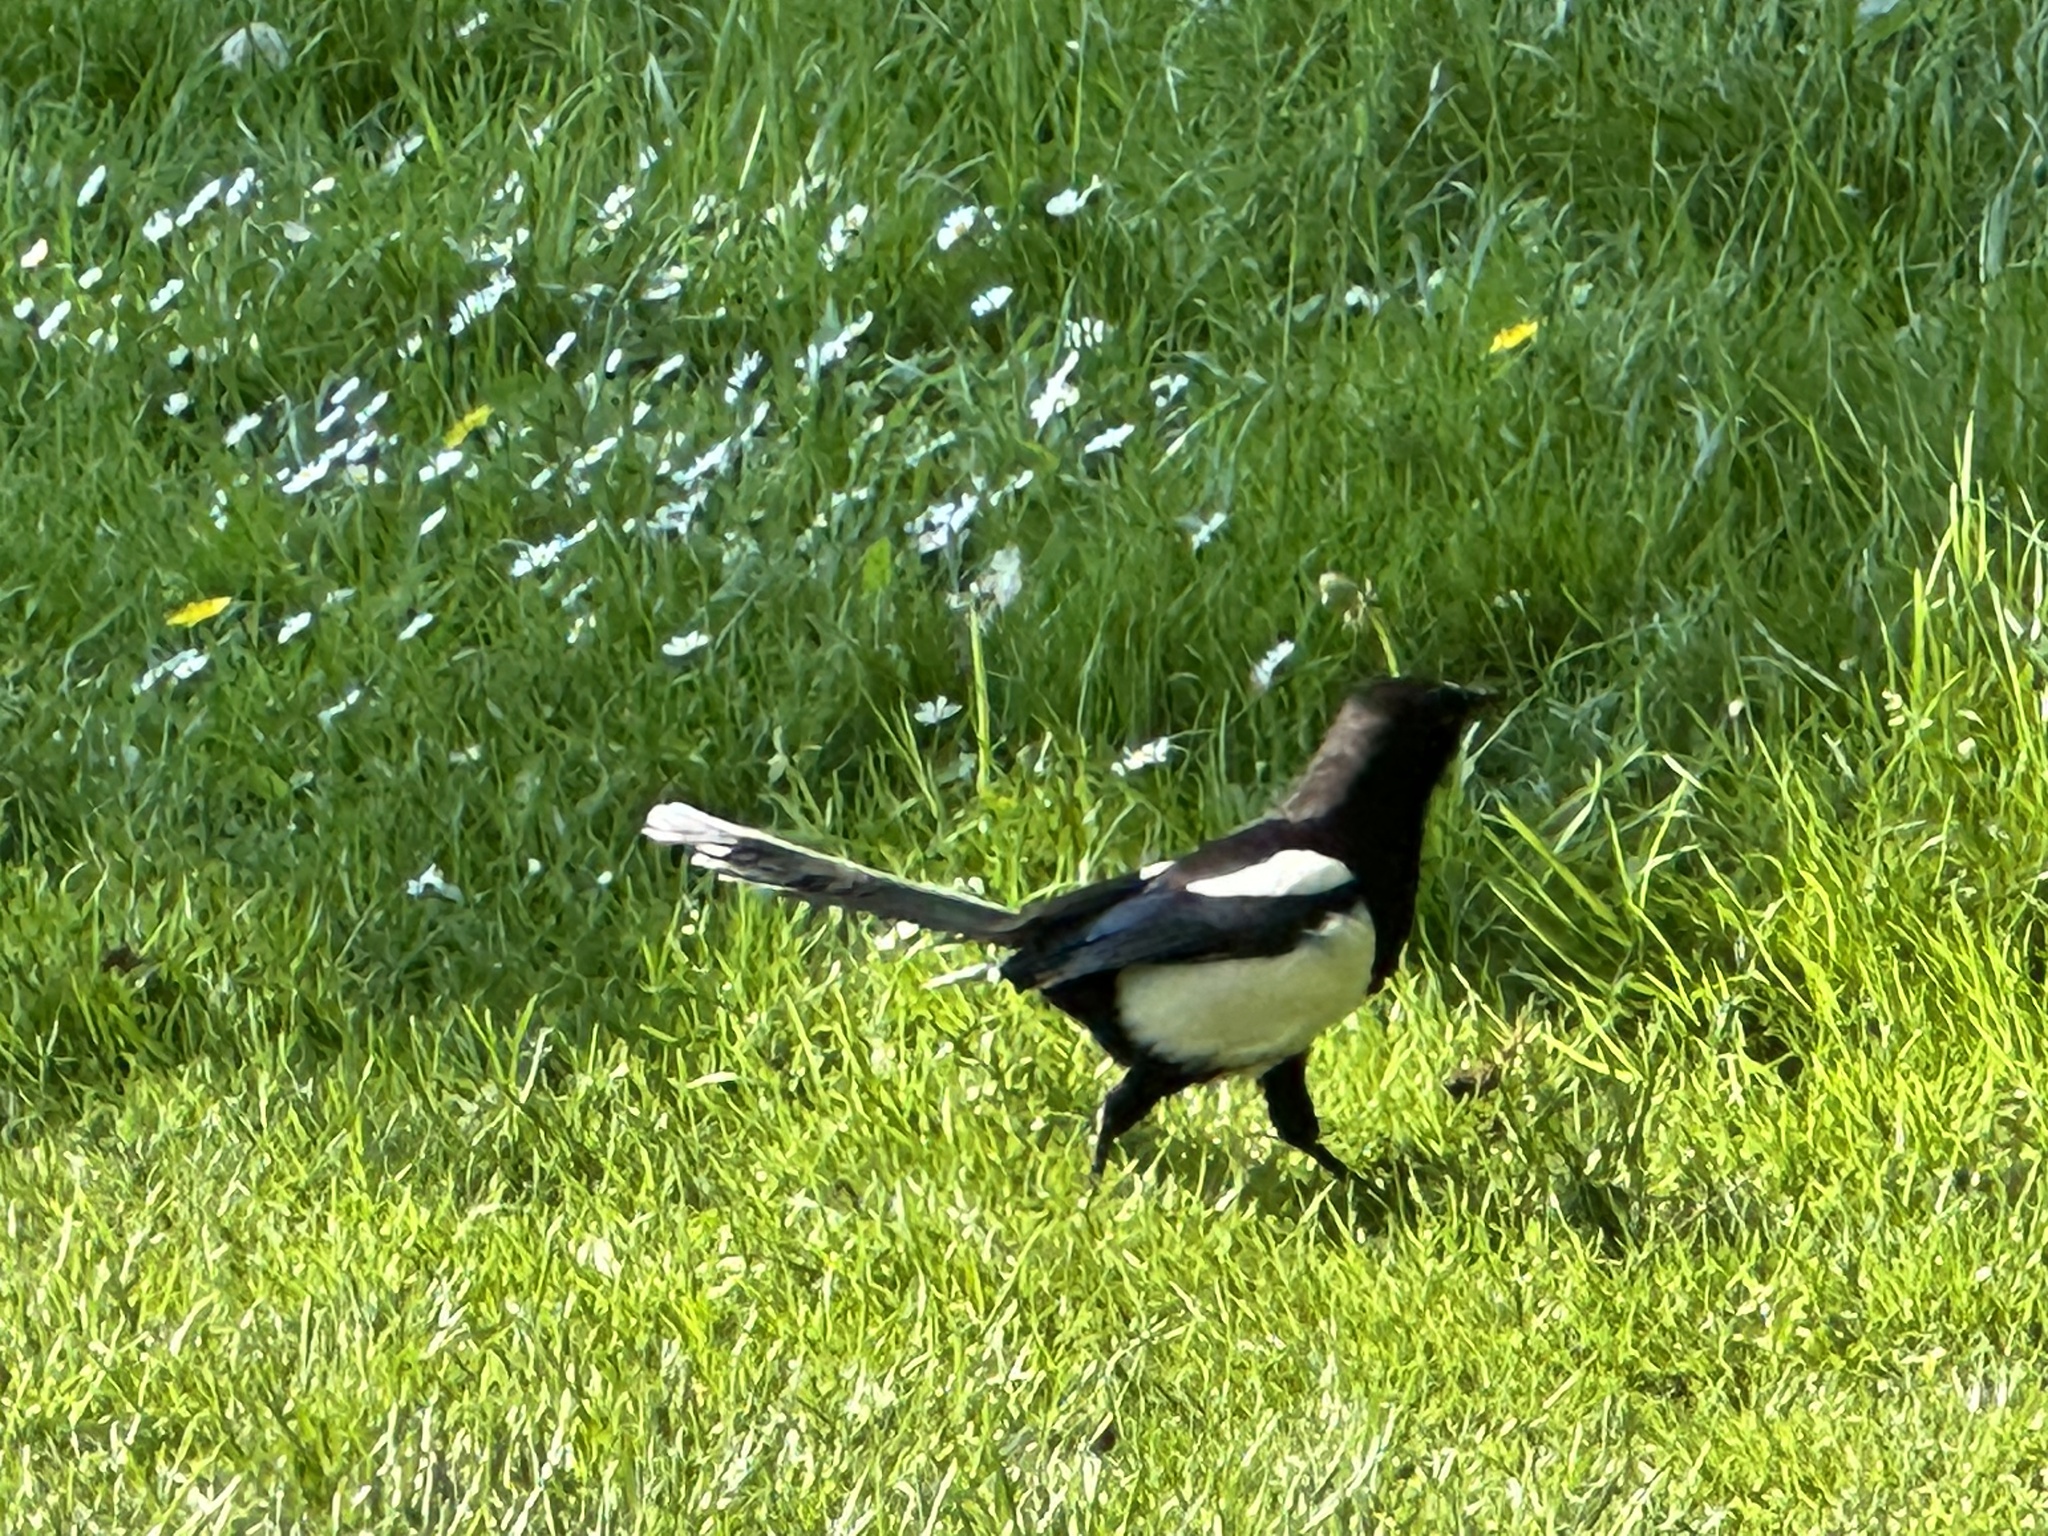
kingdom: Animalia
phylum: Chordata
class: Aves
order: Passeriformes
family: Corvidae
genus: Pica
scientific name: Pica pica
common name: Eurasian magpie
